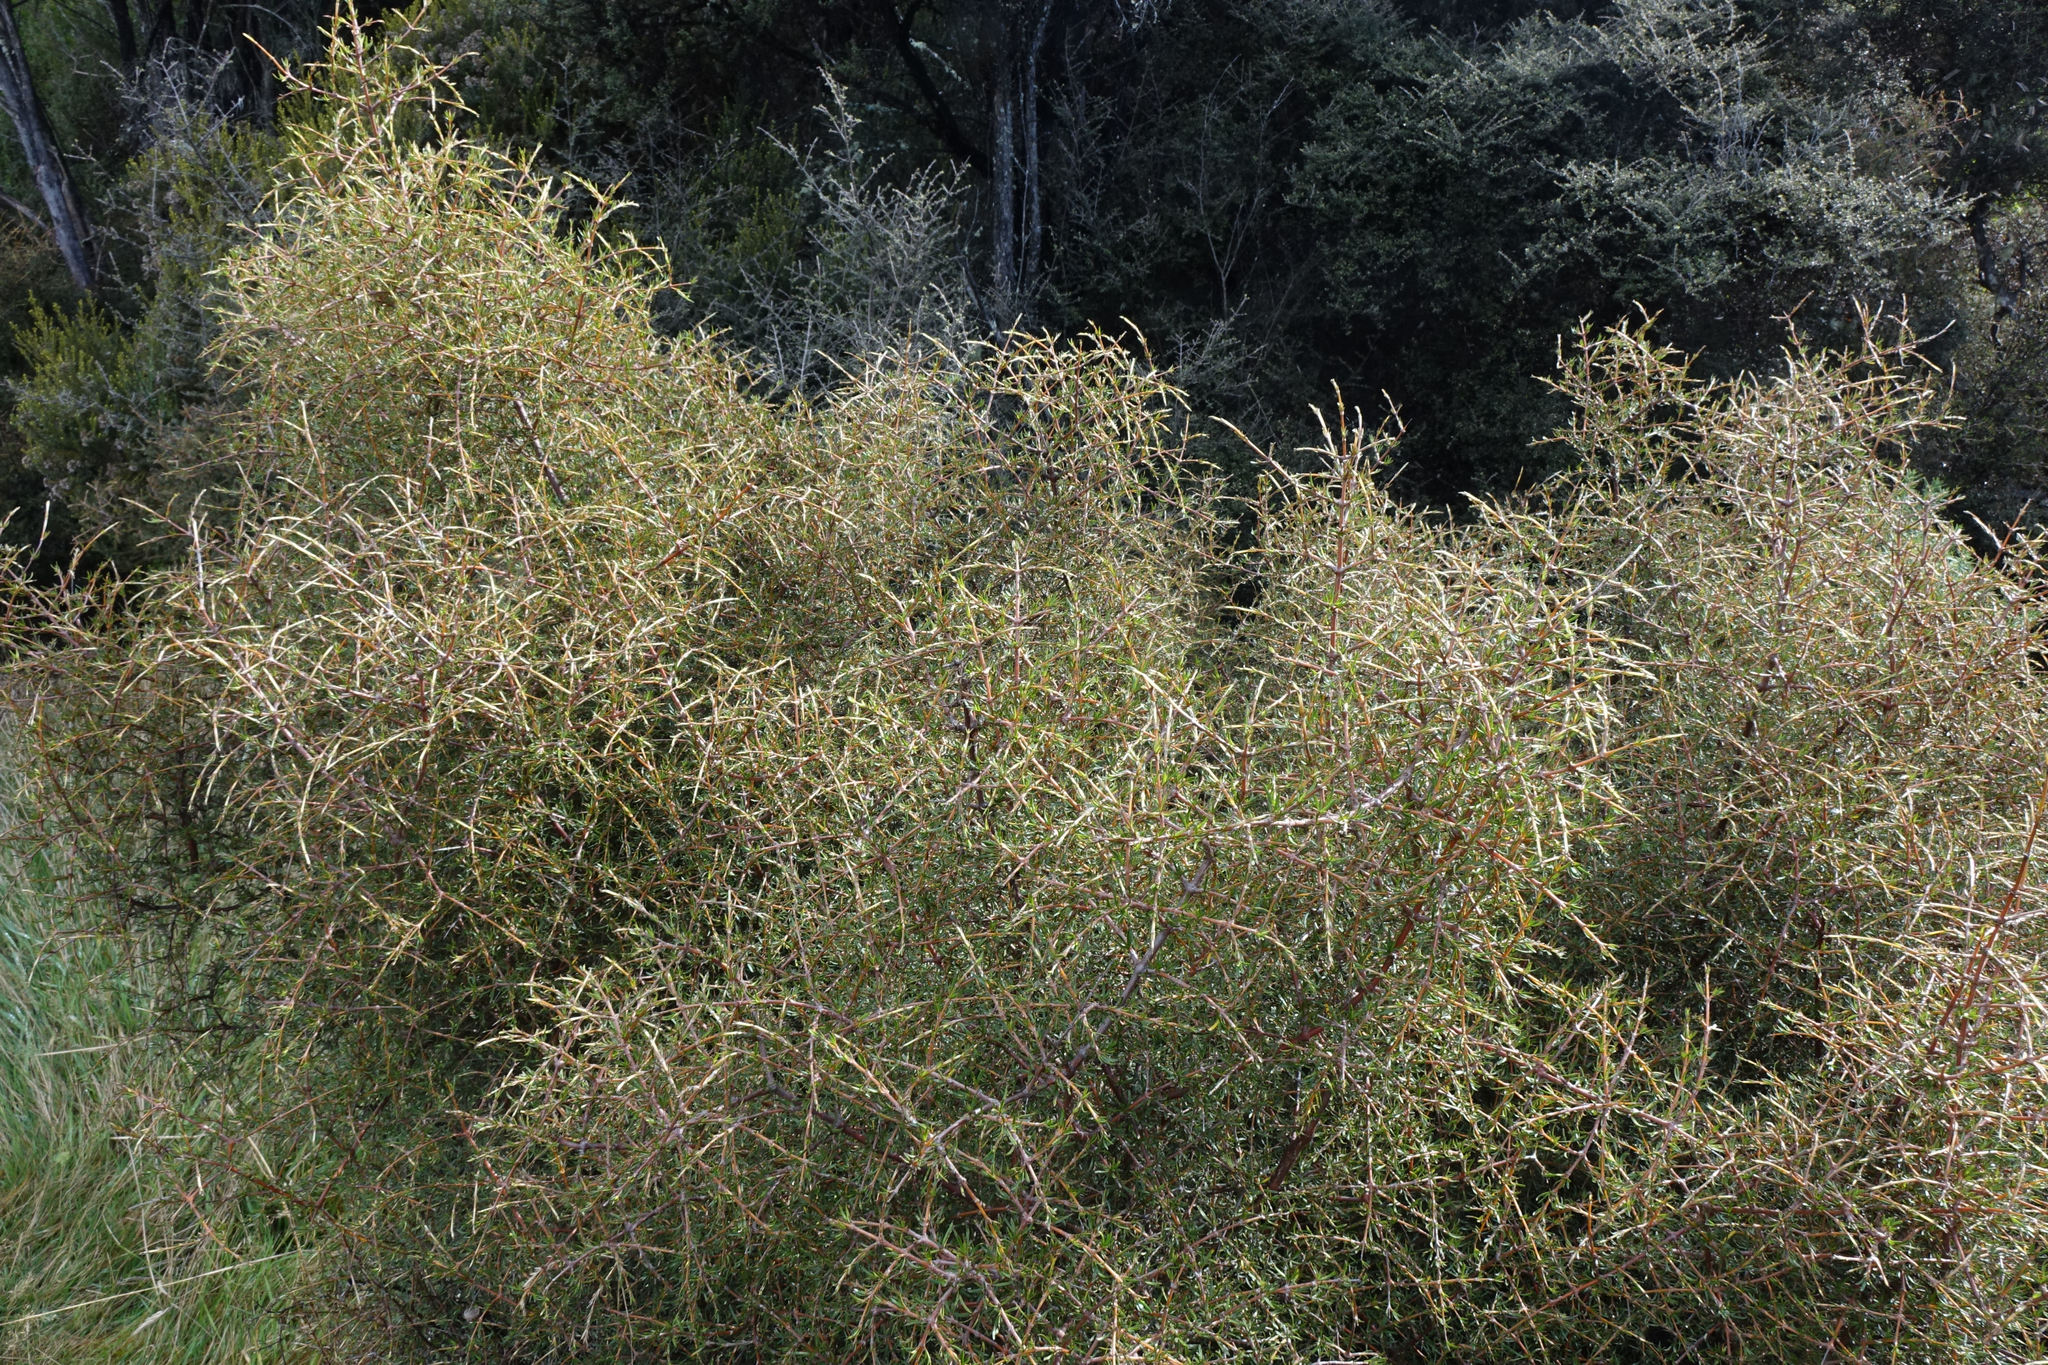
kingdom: Plantae
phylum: Tracheophyta
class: Magnoliopsida
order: Gentianales
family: Rubiaceae
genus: Coprosma
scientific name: Coprosma rugosa
